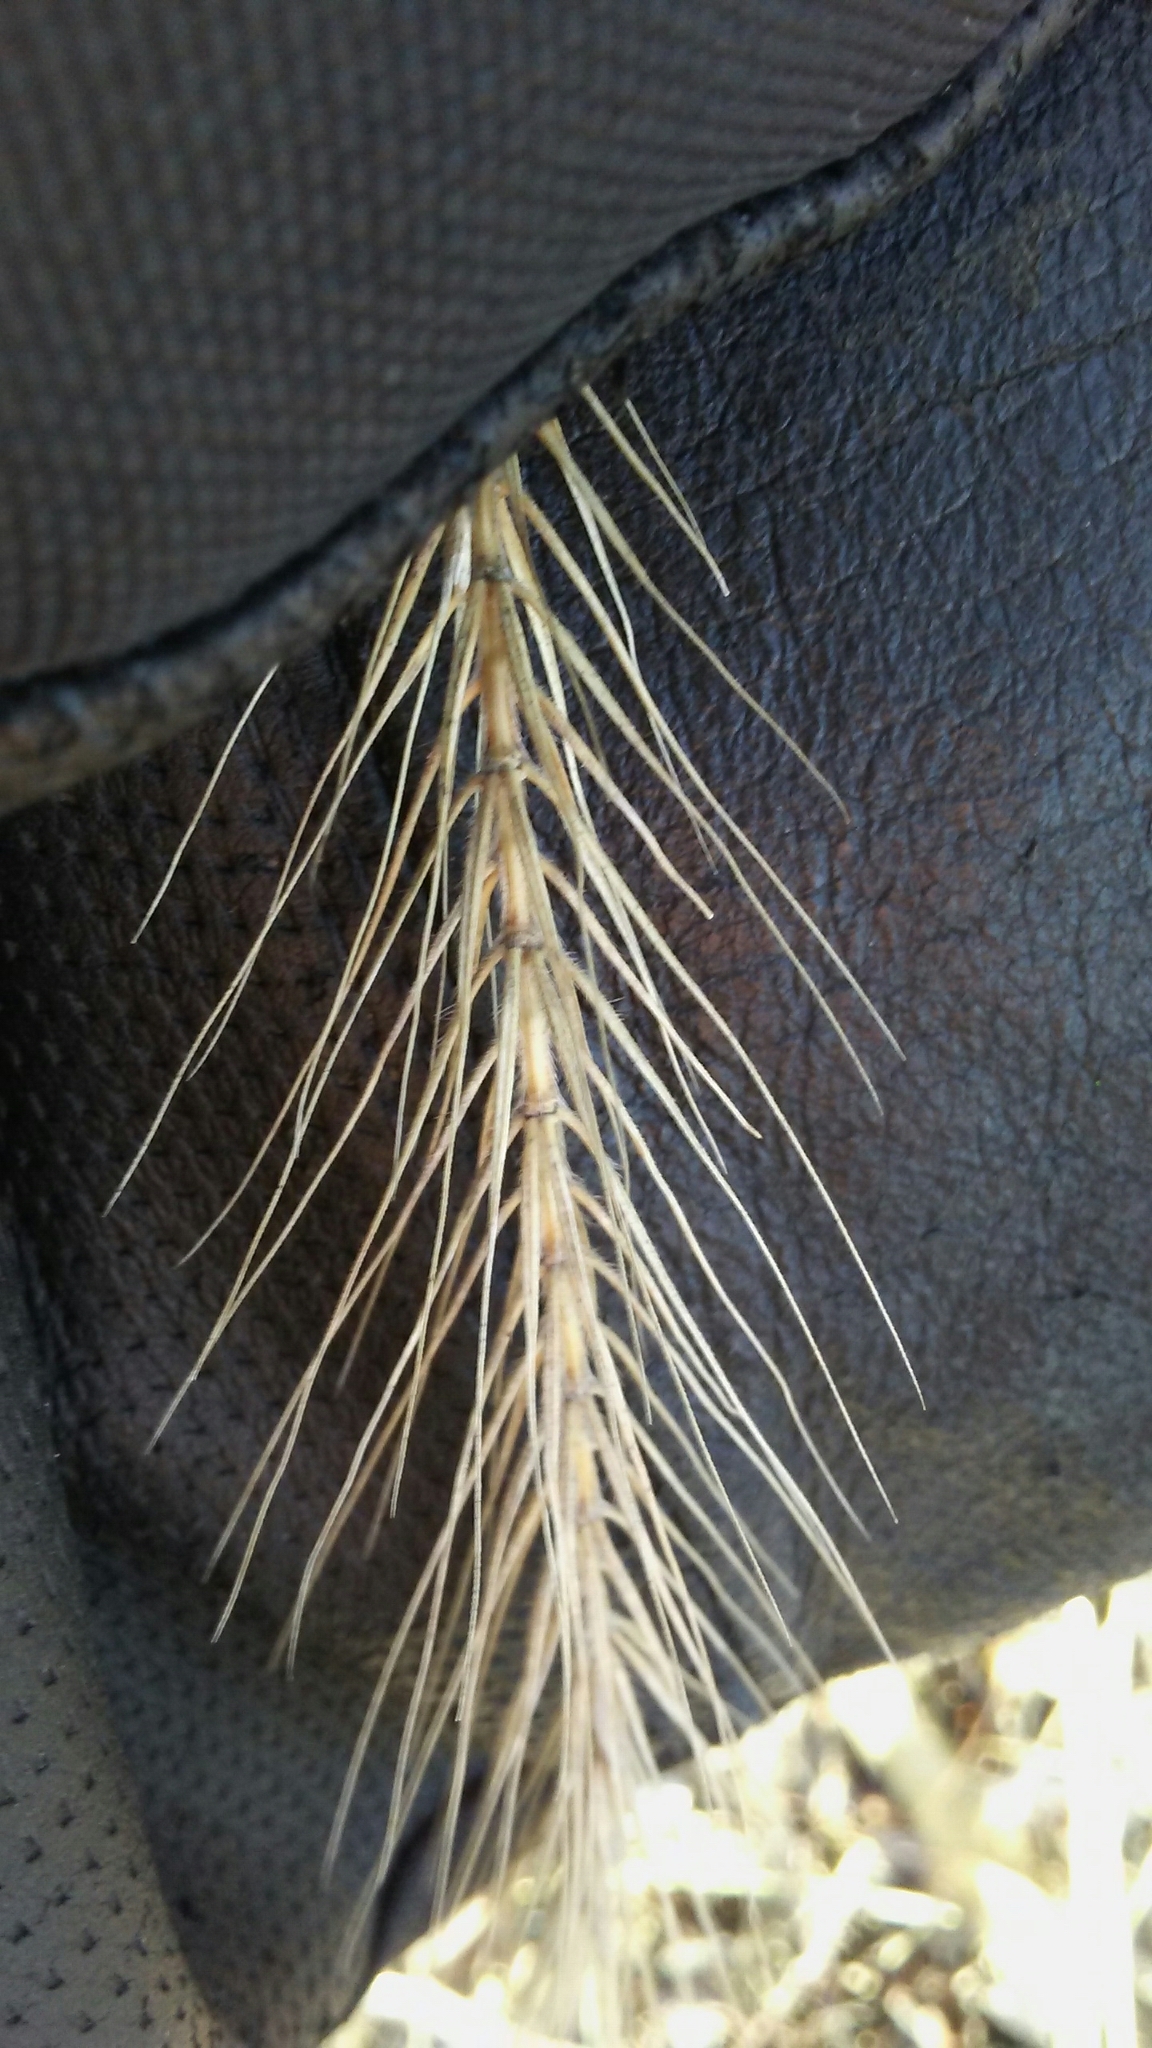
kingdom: Plantae
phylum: Tracheophyta
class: Liliopsida
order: Poales
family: Poaceae
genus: Elymus
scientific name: Elymus villosus
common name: Downy wild rye
